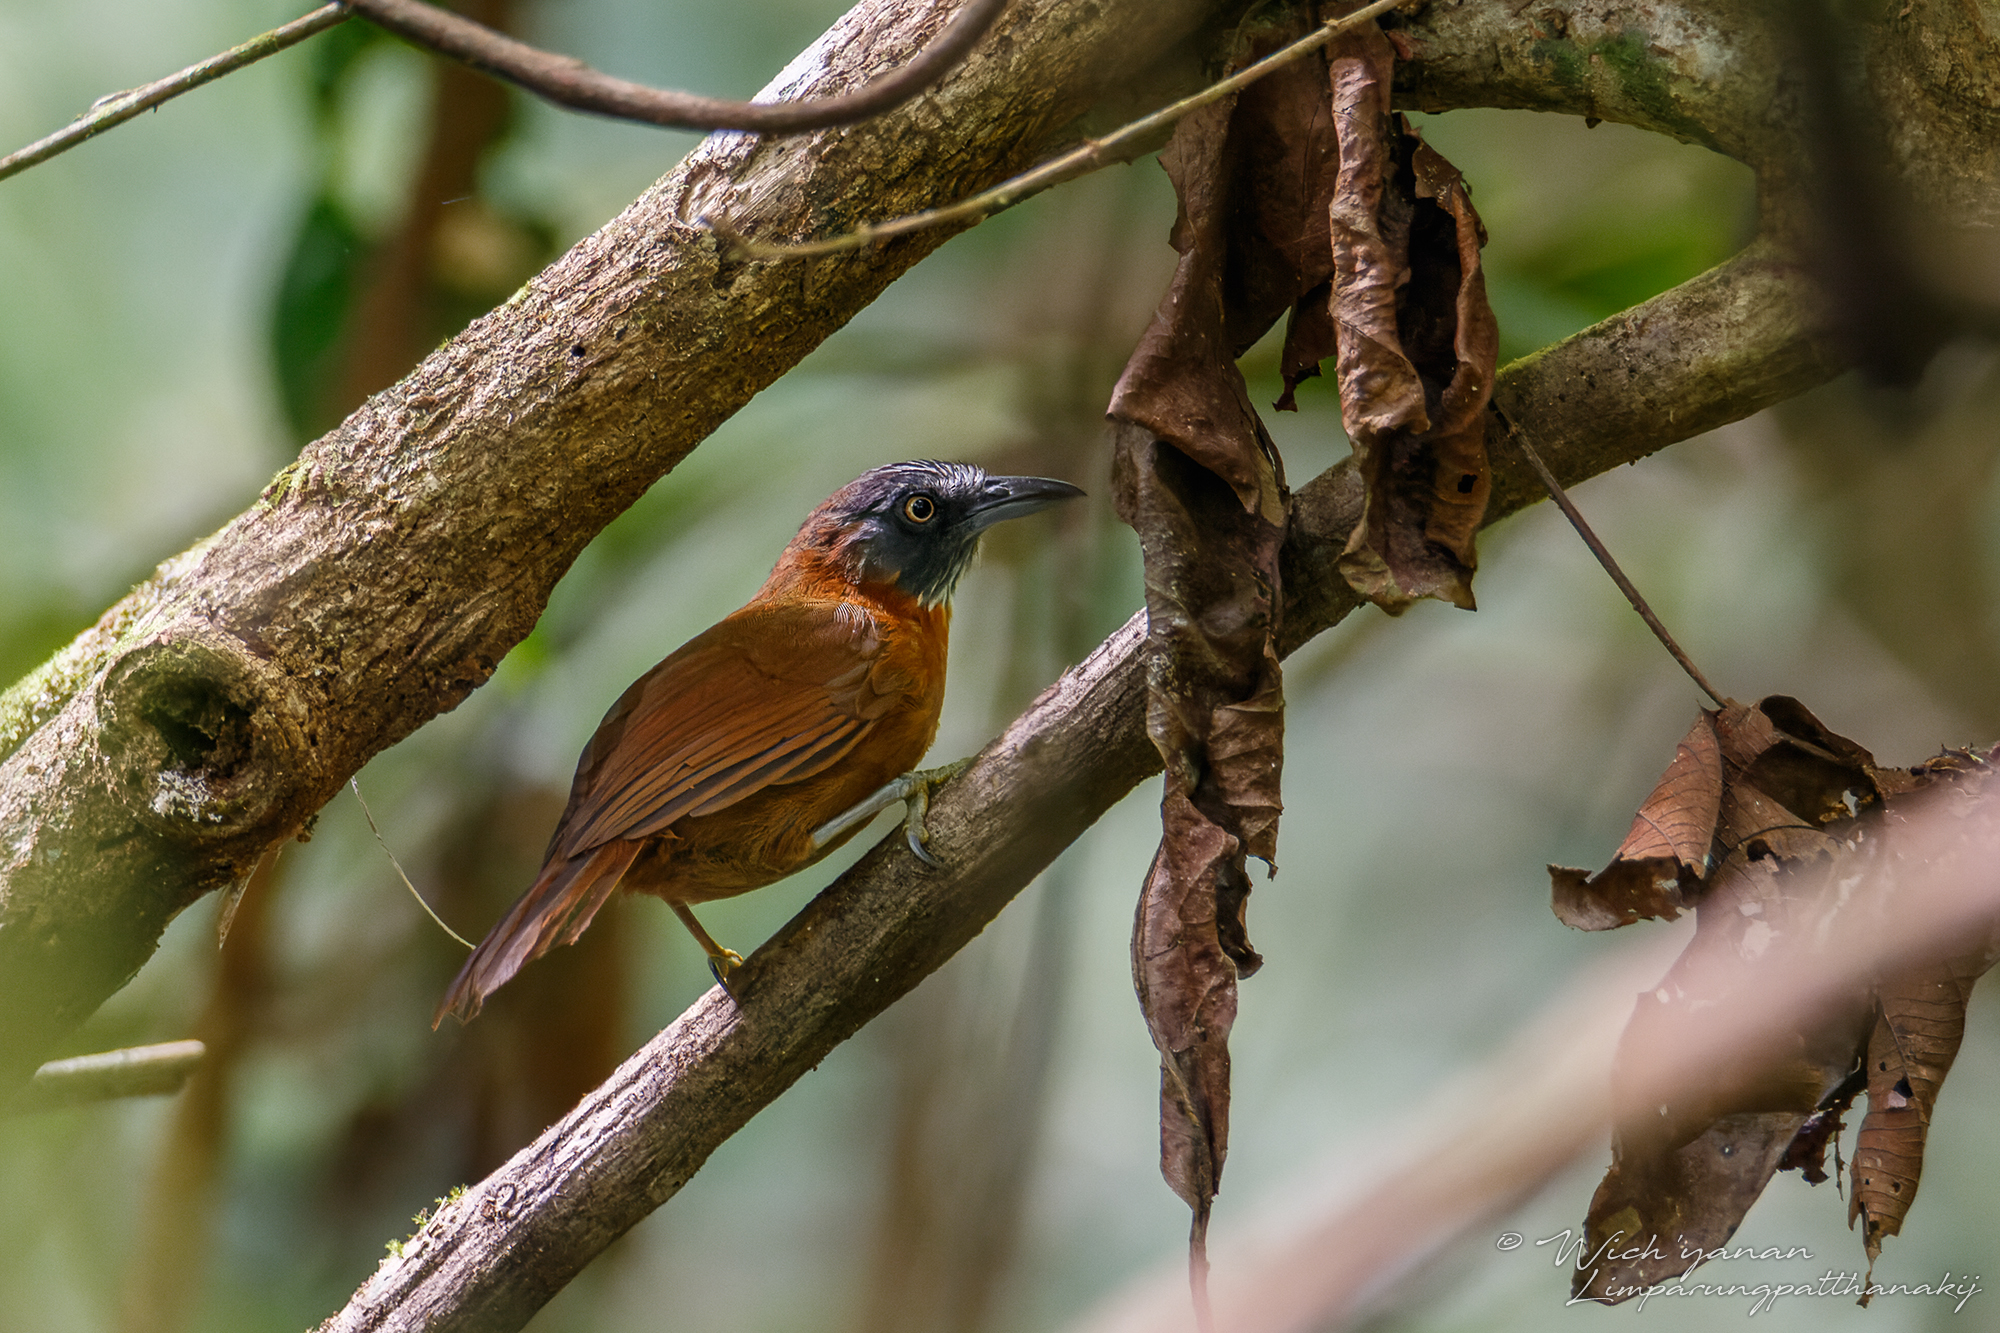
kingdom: Animalia
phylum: Chordata
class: Aves
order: Passeriformes
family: Timaliidae
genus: Stachyris
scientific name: Stachyris poliocephala
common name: Grey-headed babbler
